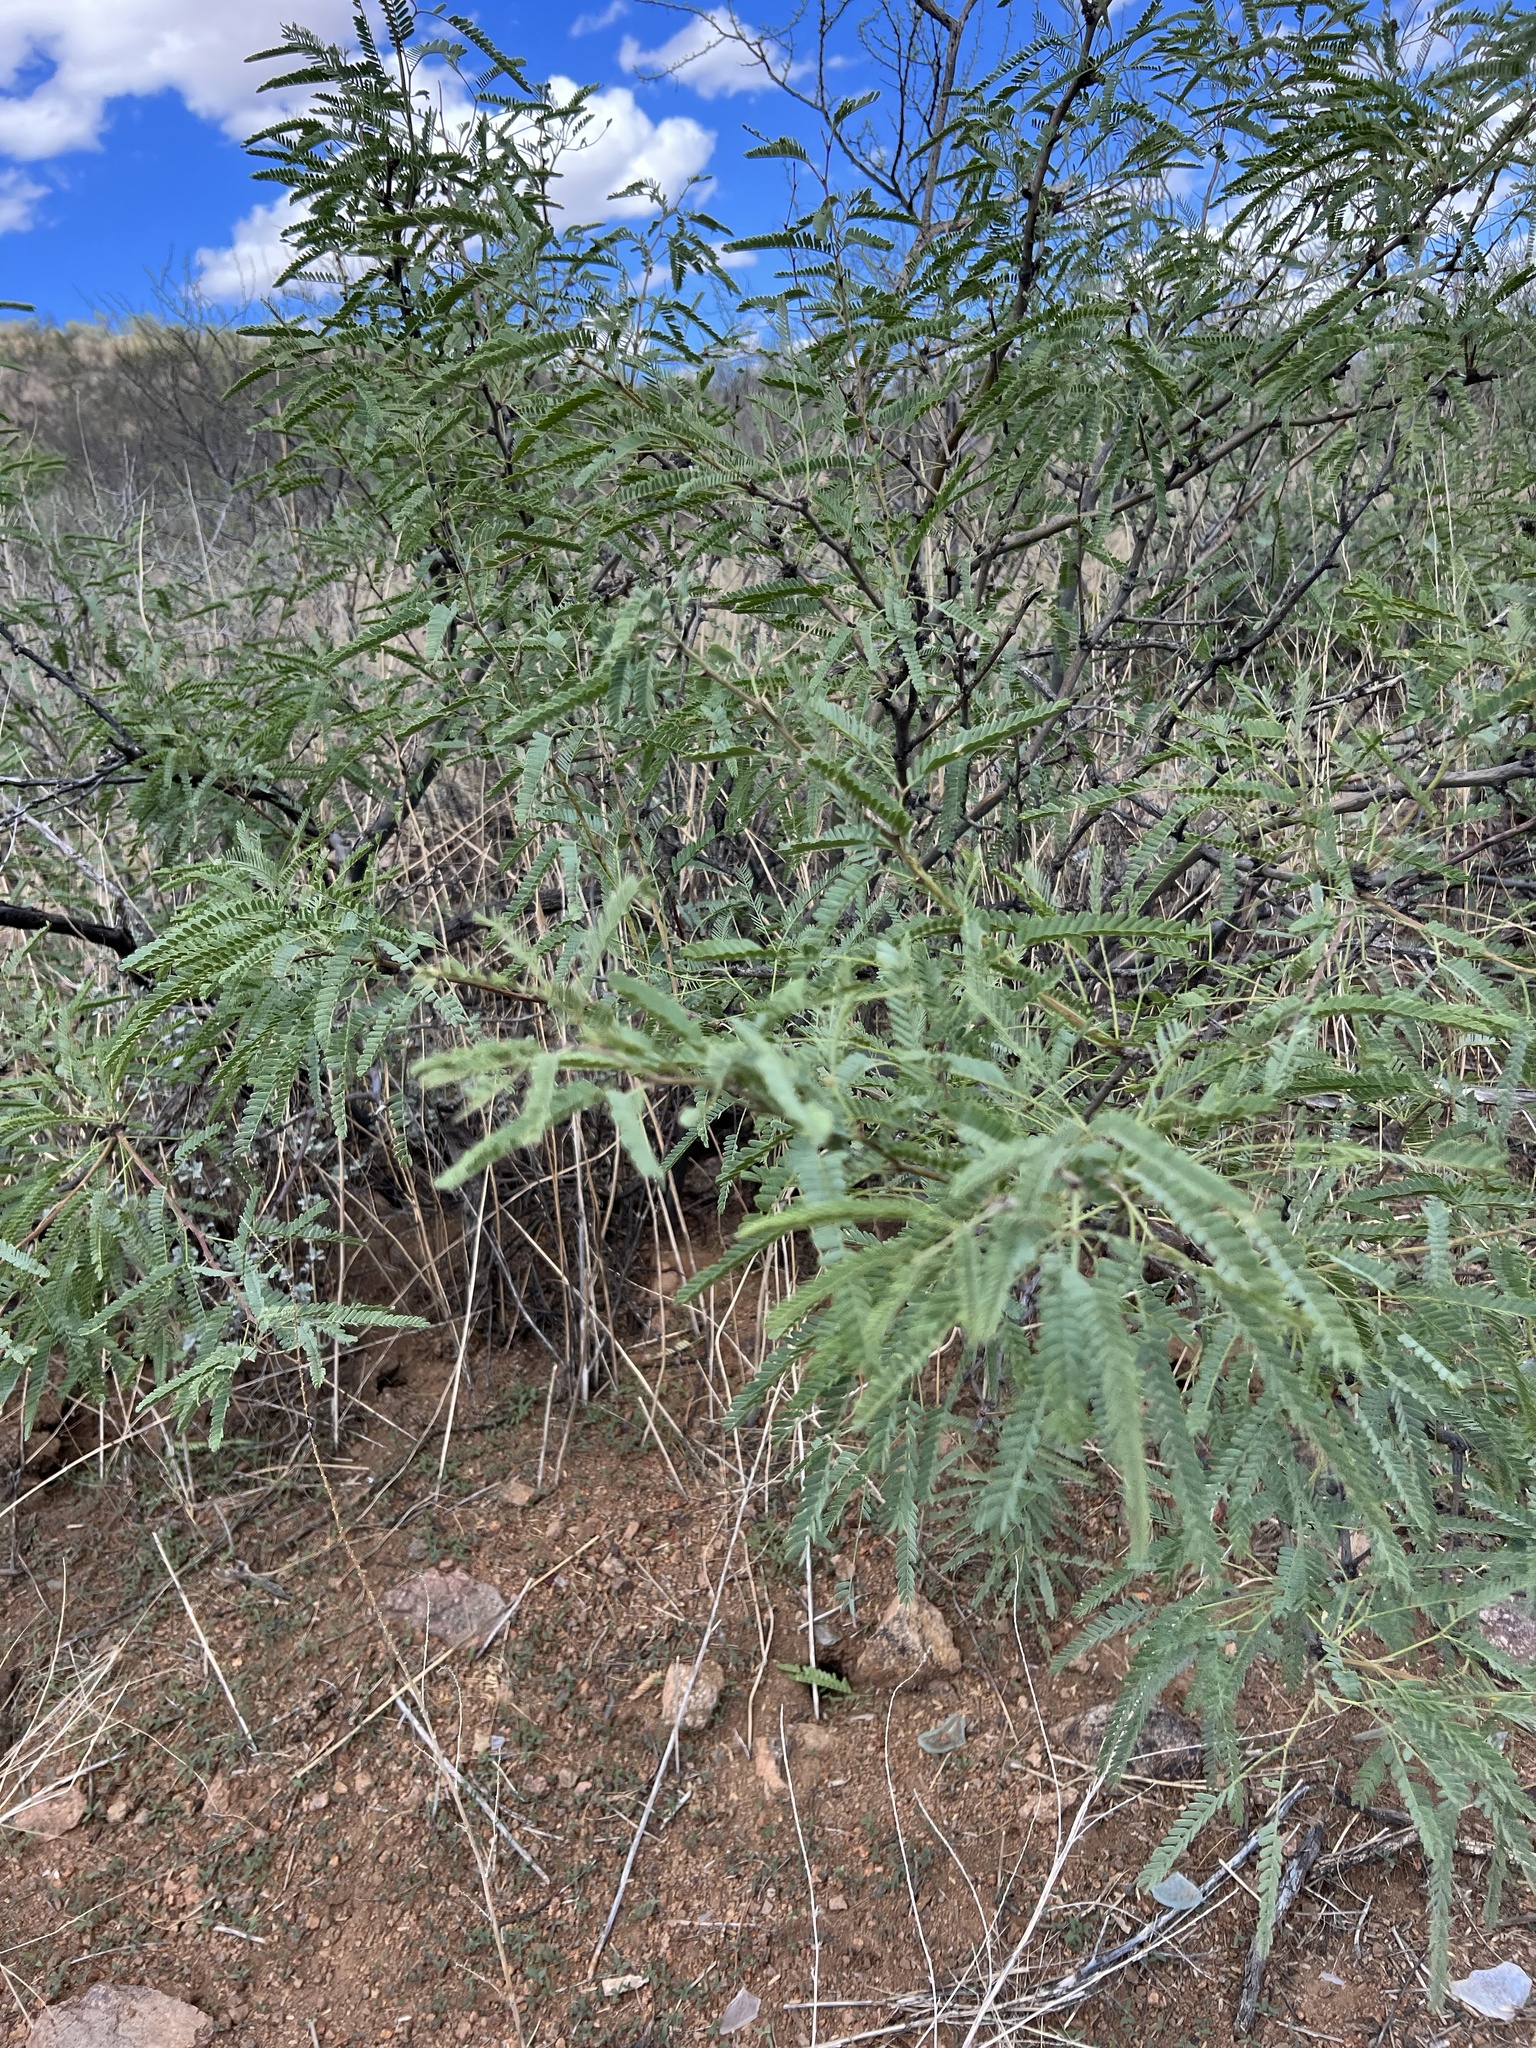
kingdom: Plantae
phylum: Tracheophyta
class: Magnoliopsida
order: Fabales
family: Fabaceae
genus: Prosopis
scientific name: Prosopis velutina
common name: Velvet mesquite
